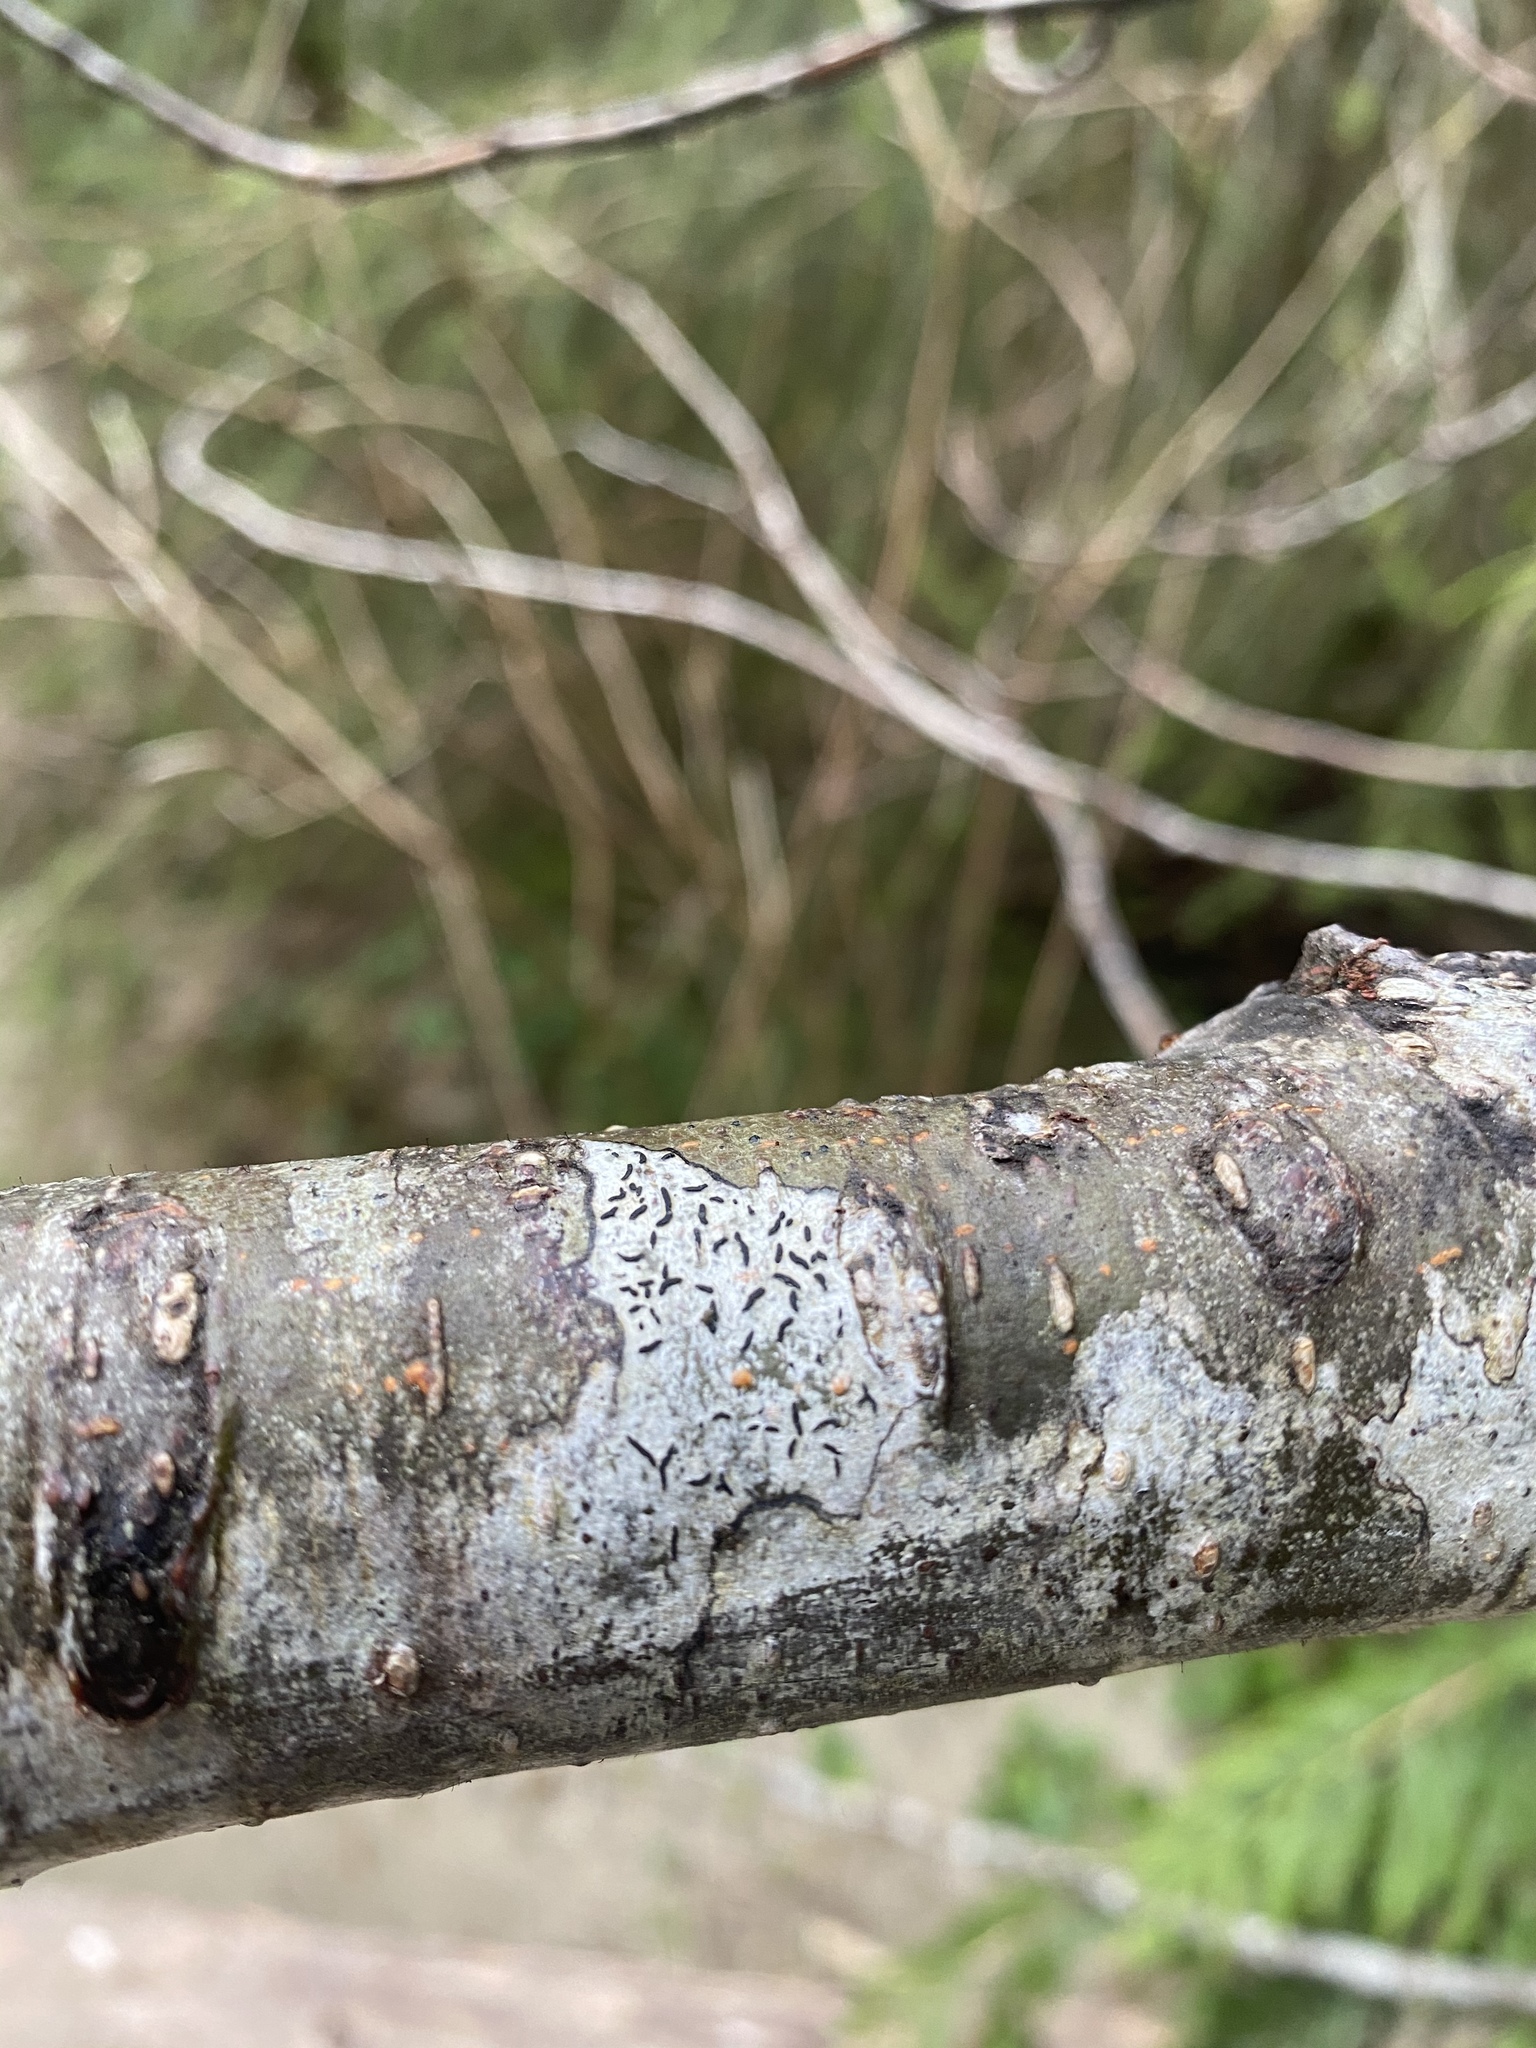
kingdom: Fungi
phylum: Ascomycota
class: Lecanoromycetes
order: Ostropales
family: Graphidaceae
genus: Graphis
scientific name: Graphis scripta
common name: Script lichen
